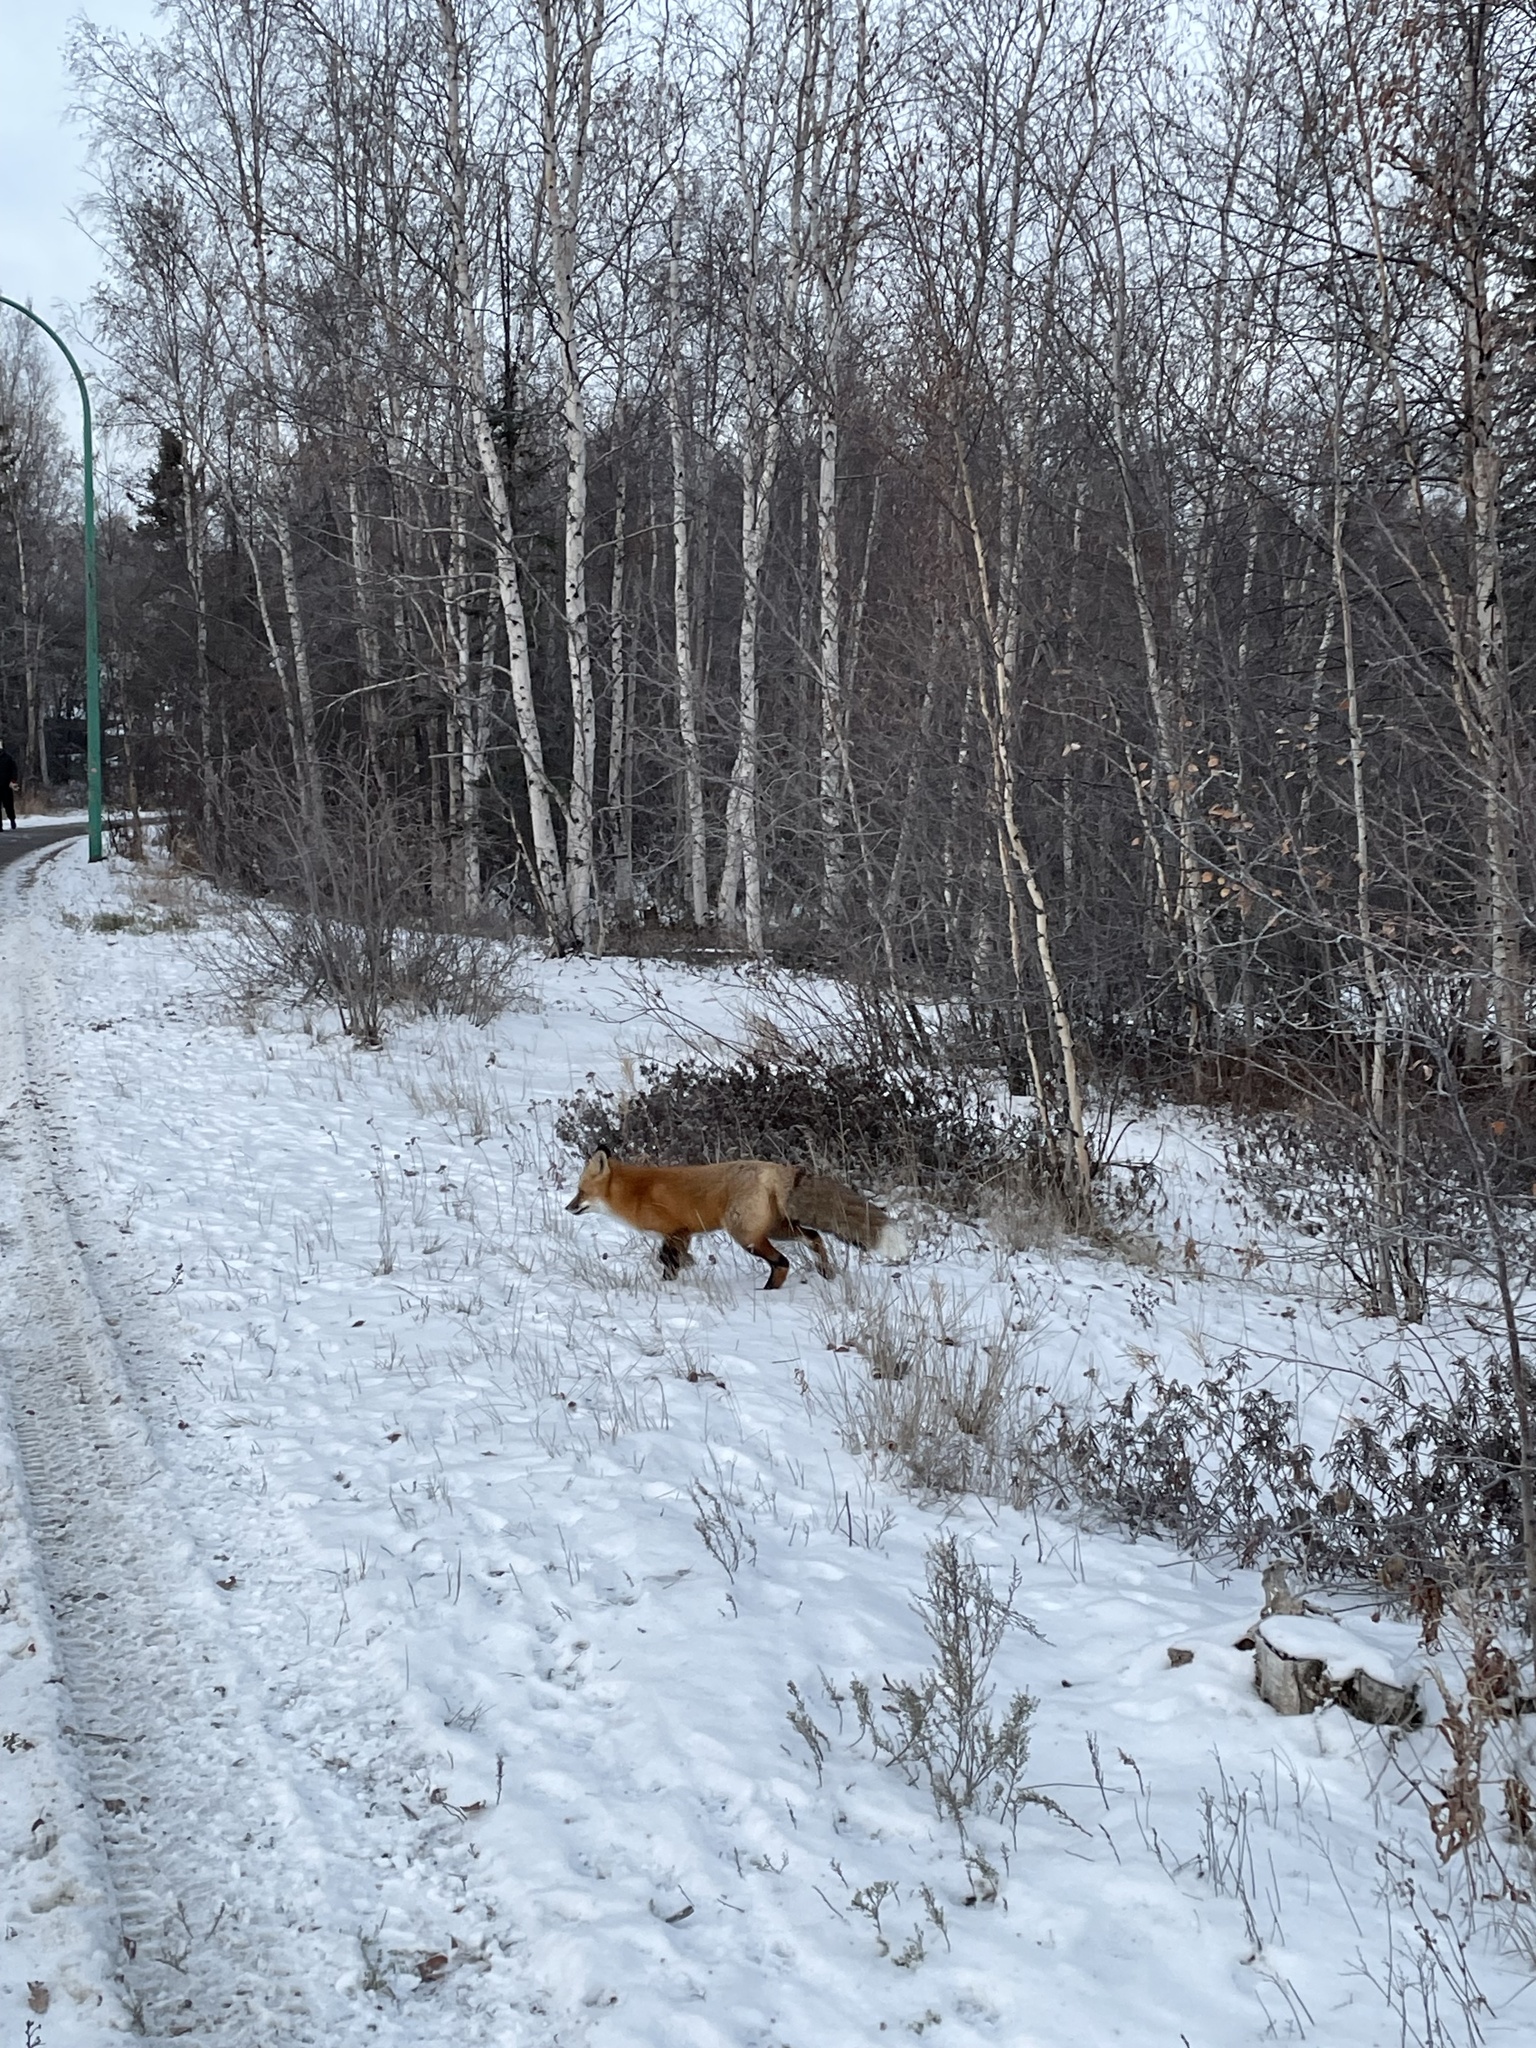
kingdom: Animalia
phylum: Chordata
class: Mammalia
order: Carnivora
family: Canidae
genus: Vulpes
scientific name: Vulpes vulpes
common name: Red fox
